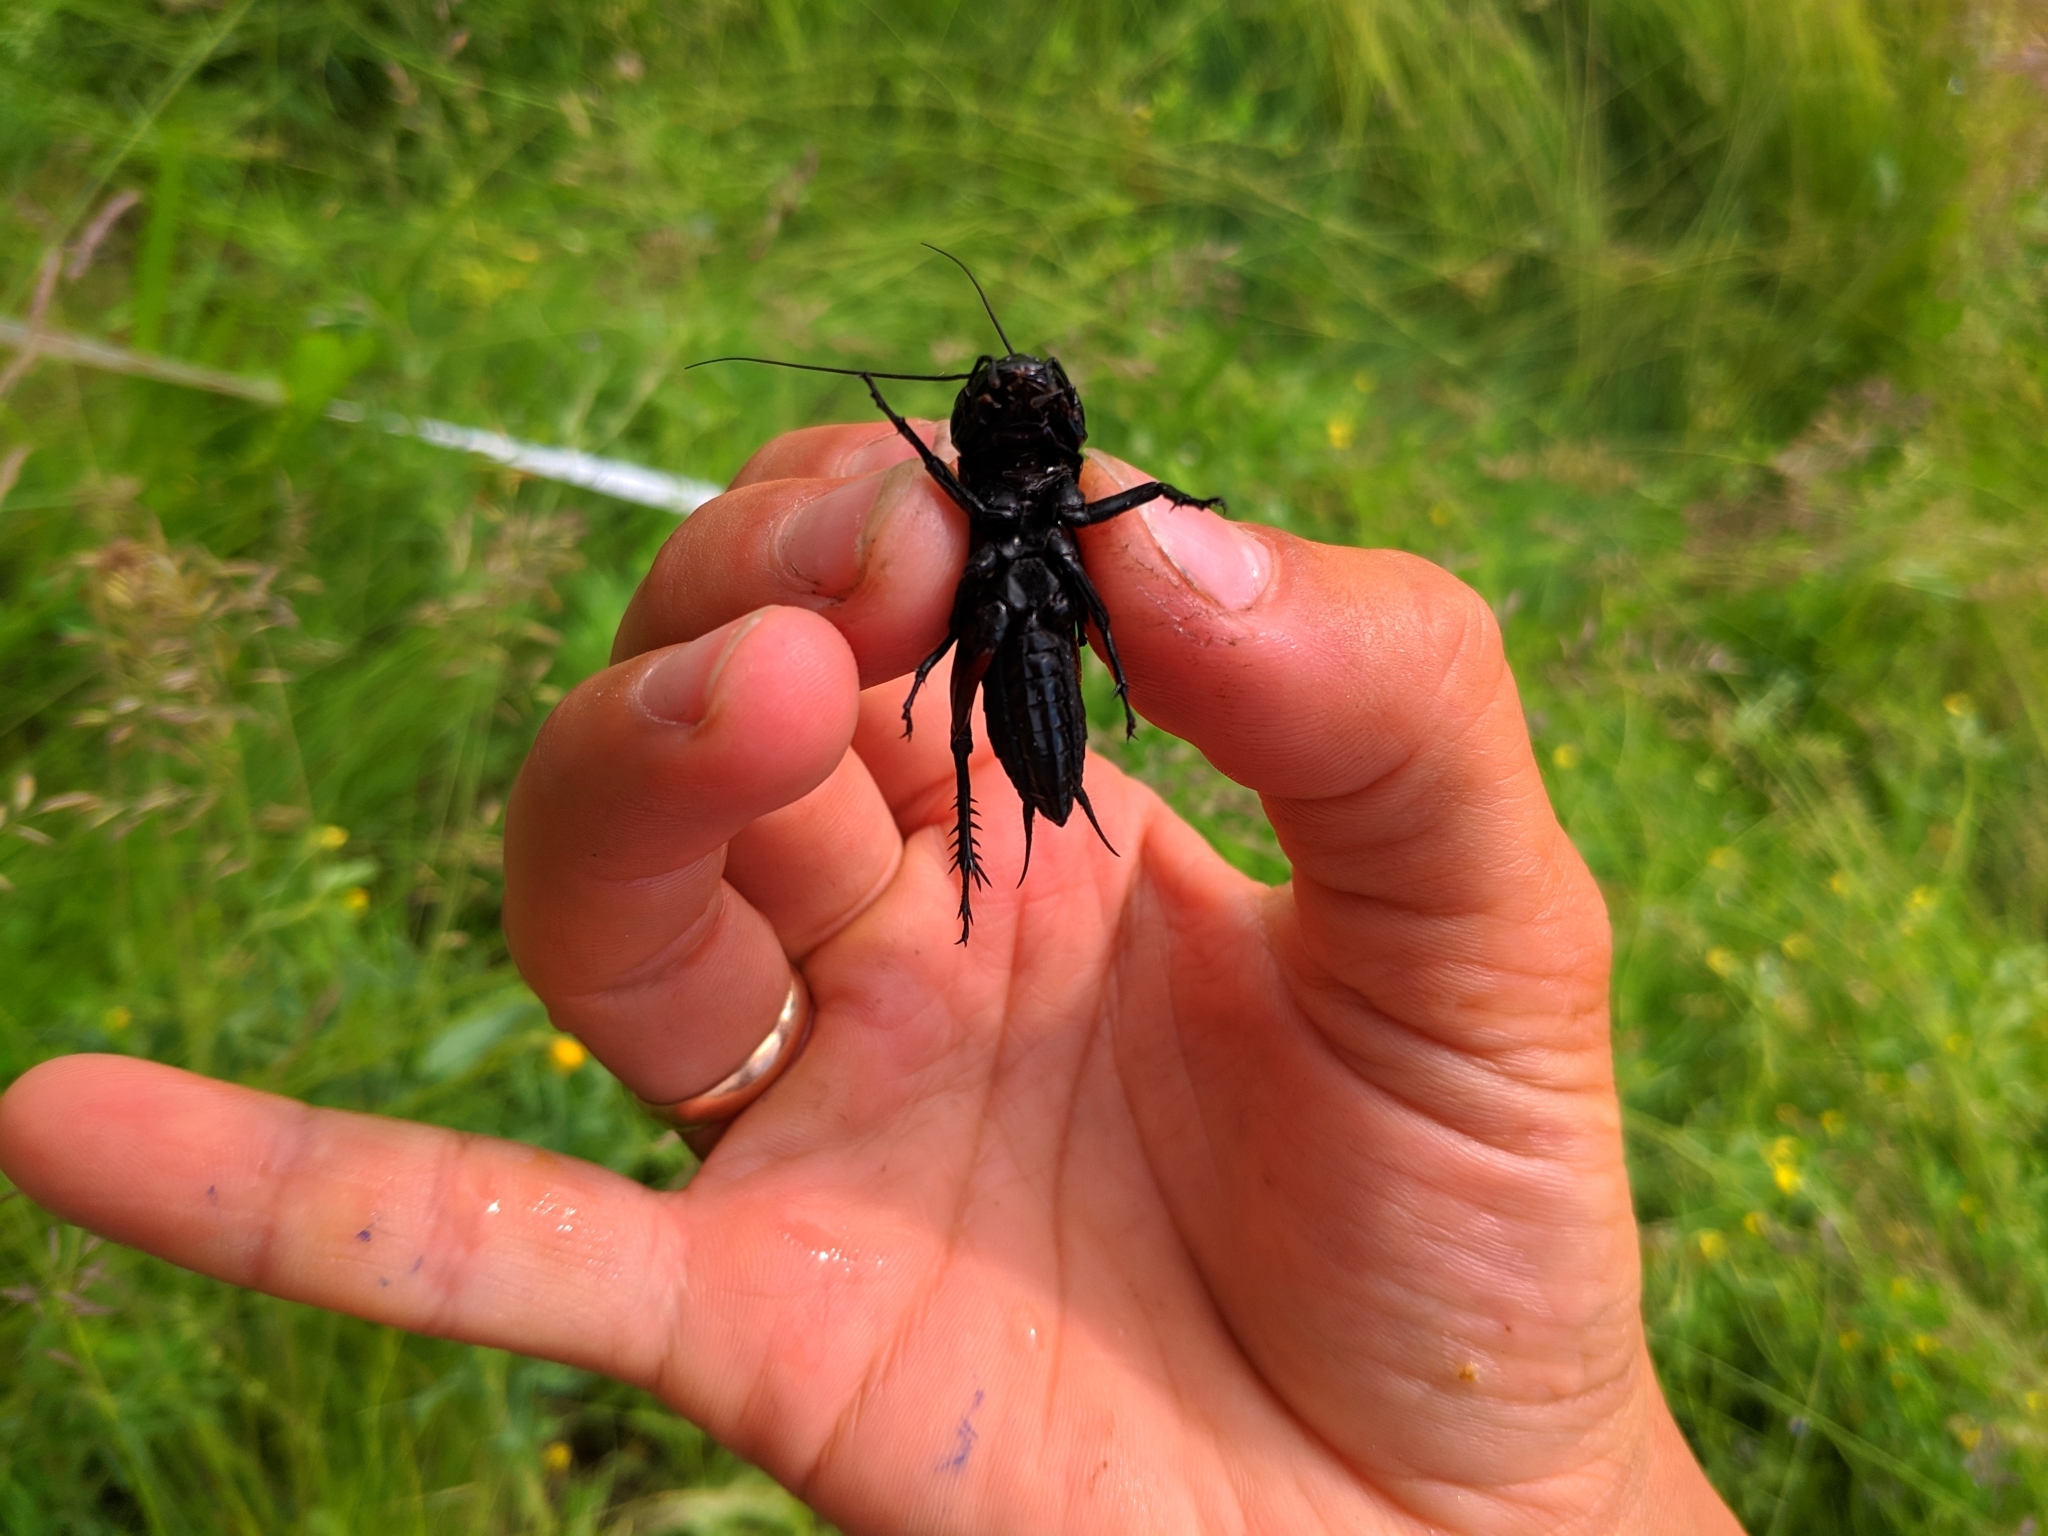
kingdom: Animalia
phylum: Arthropoda
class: Insecta
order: Orthoptera
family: Gryllidae
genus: Gryllus
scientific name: Gryllus campestris
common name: Field cricket
